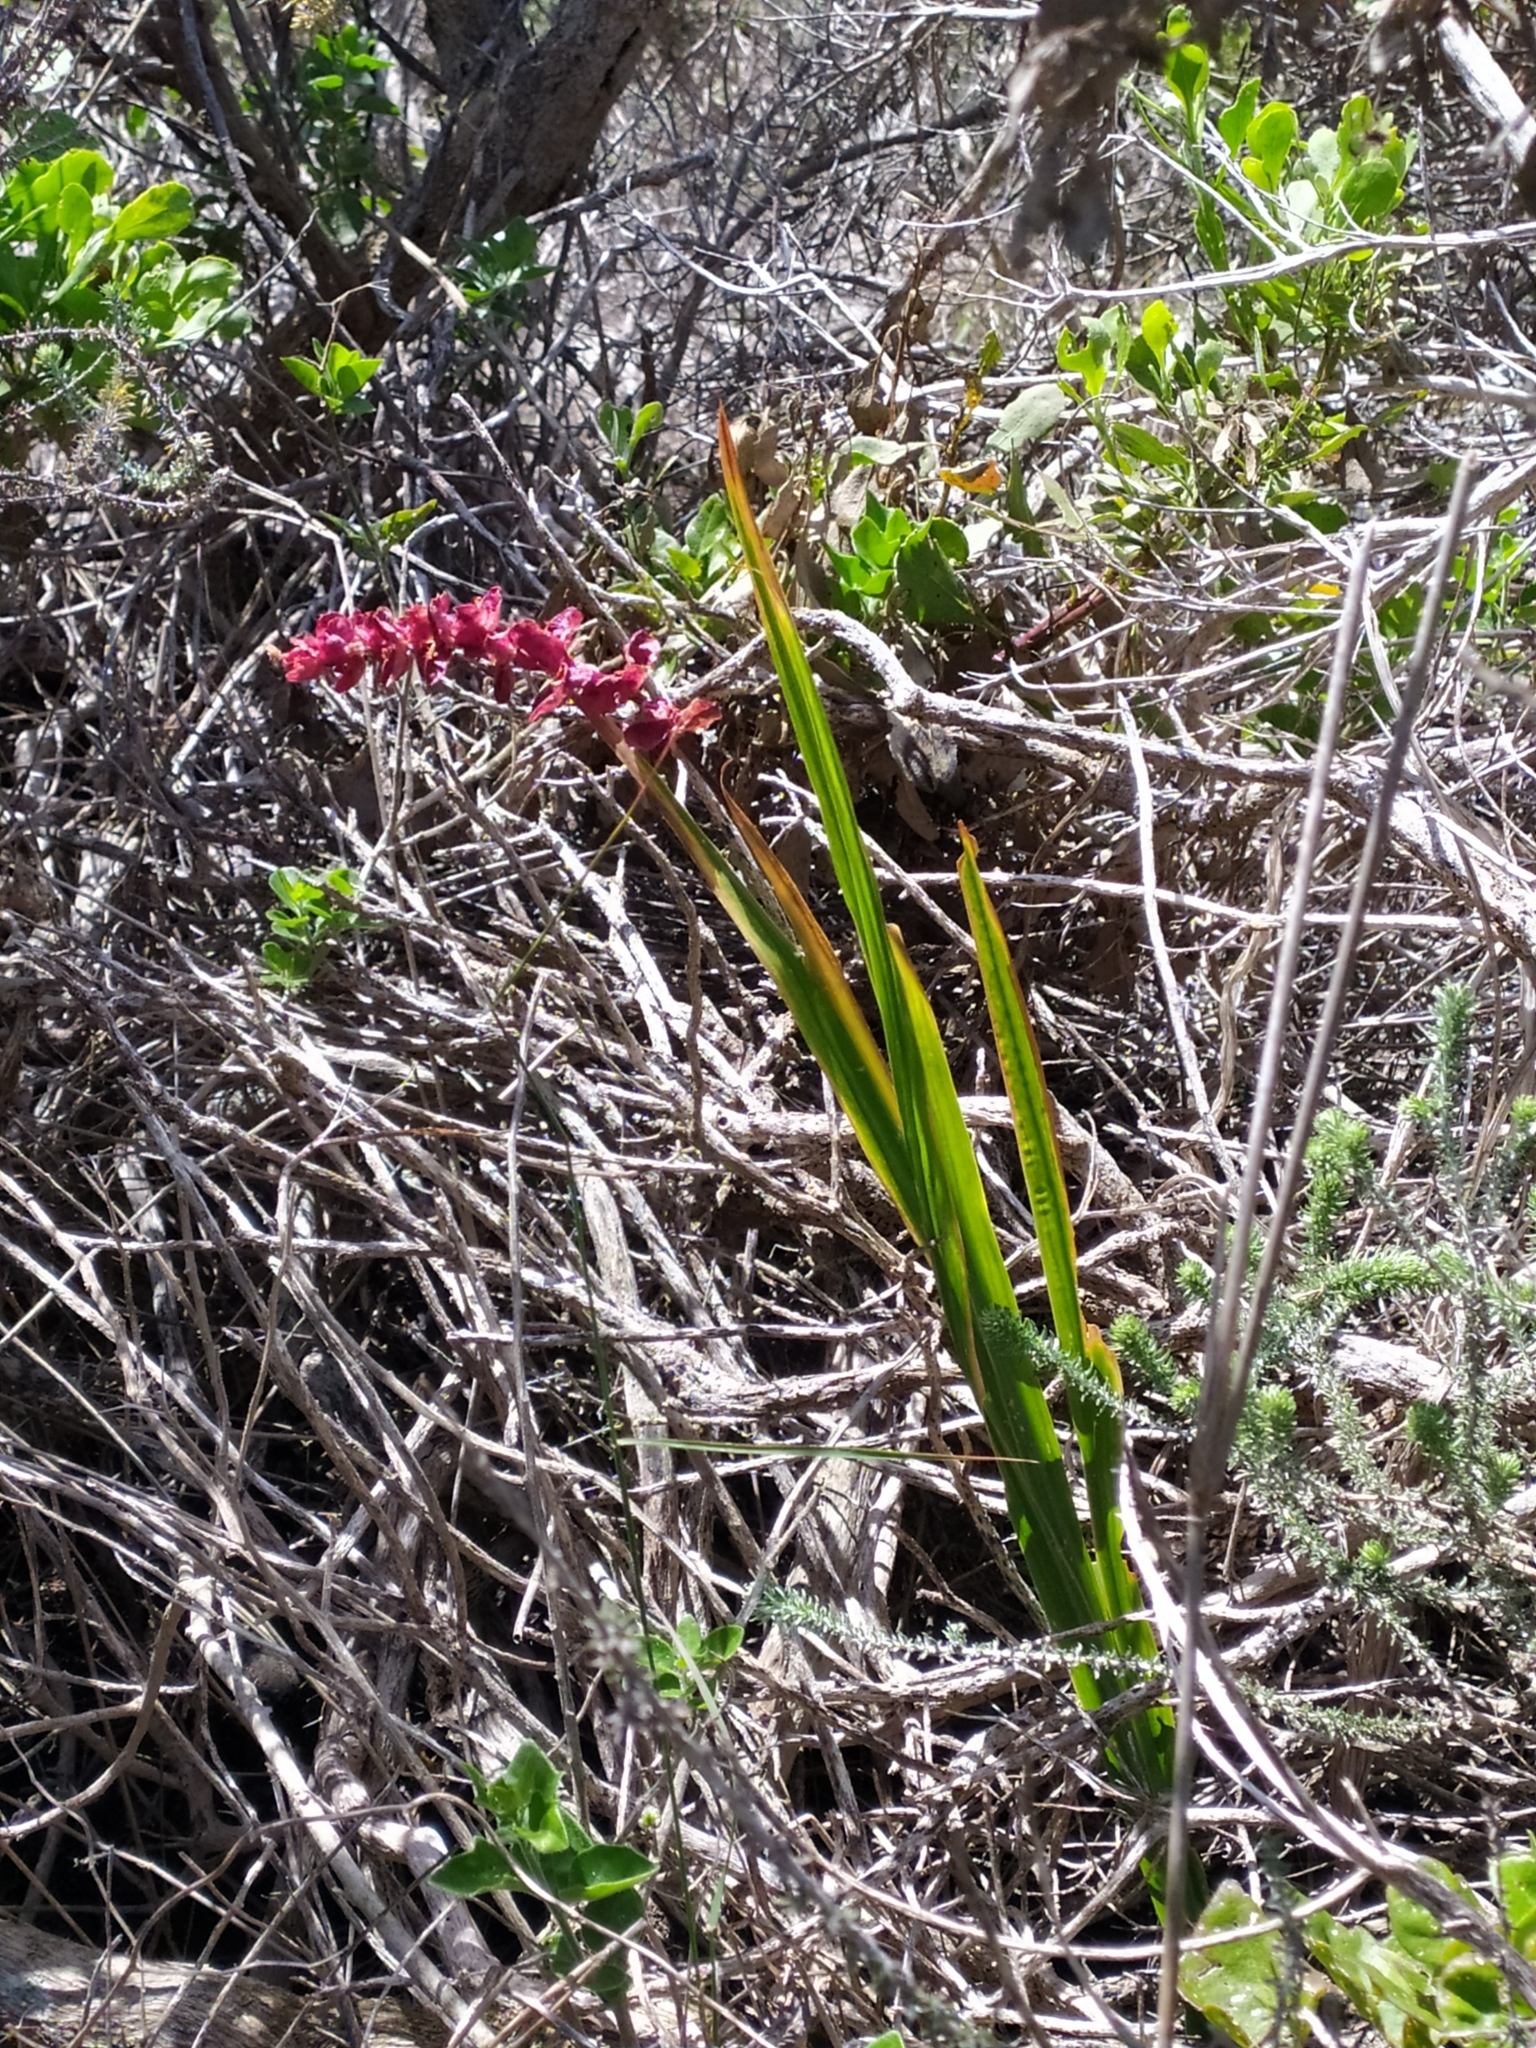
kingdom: Plantae
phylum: Tracheophyta
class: Liliopsida
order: Asparagales
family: Iridaceae
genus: Chasmanthe
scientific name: Chasmanthe aethiopica
